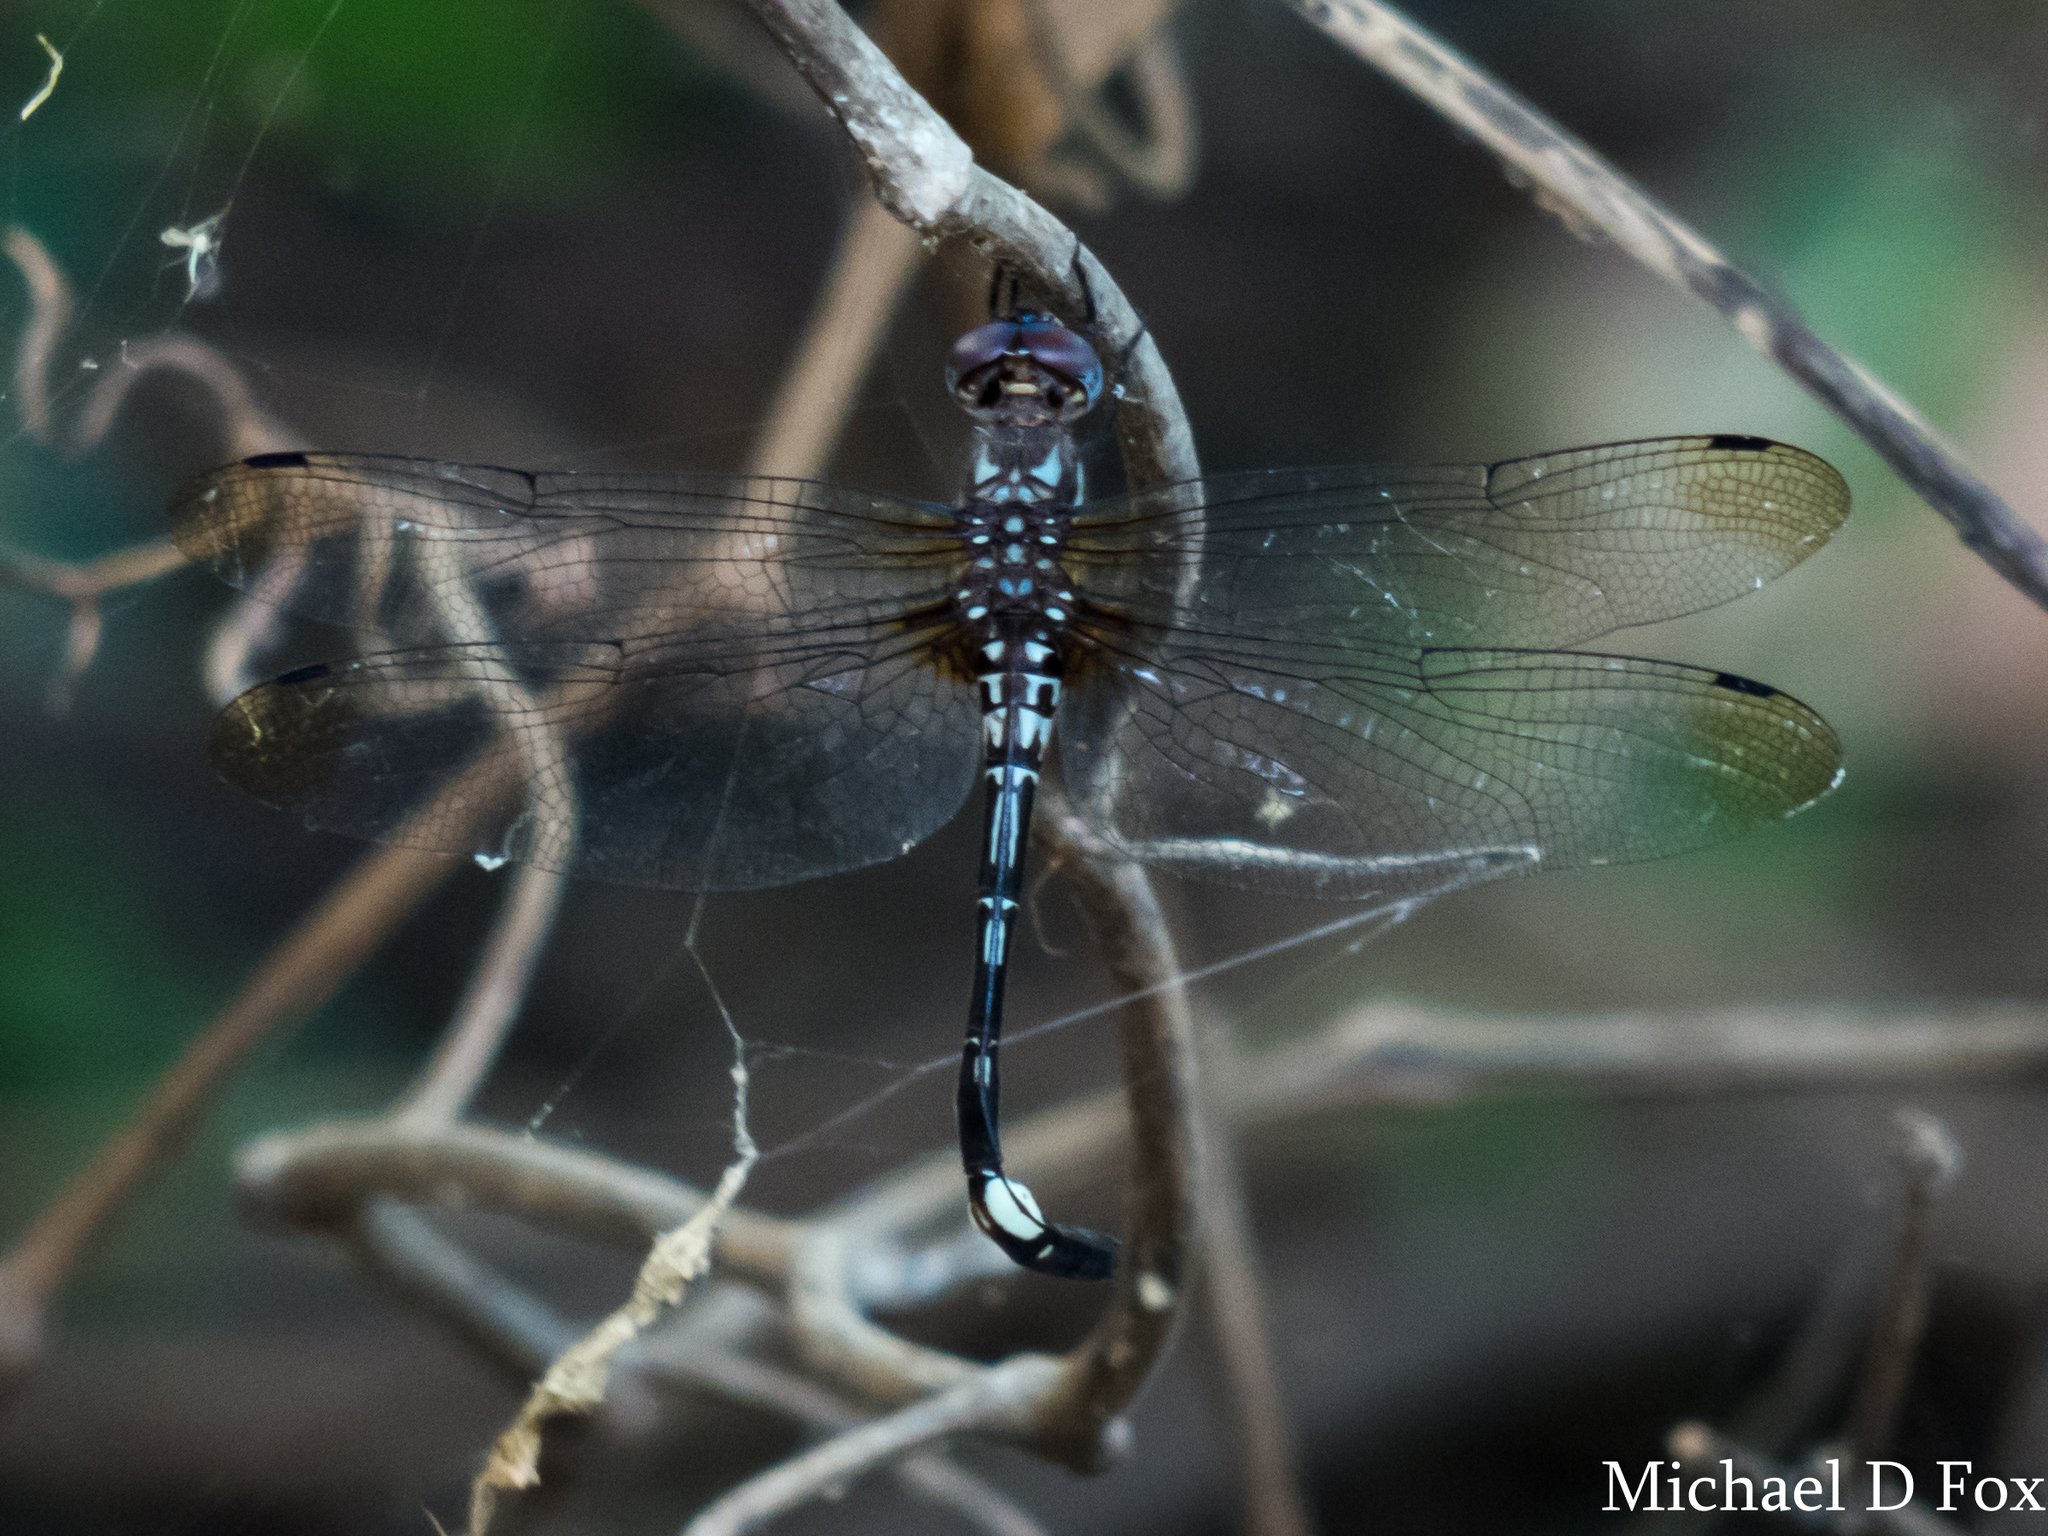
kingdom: Animalia
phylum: Arthropoda
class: Insecta
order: Odonata
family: Libellulidae
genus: Brechmorhoga
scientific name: Brechmorhoga mendax
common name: Pale-faced clubskimmer
